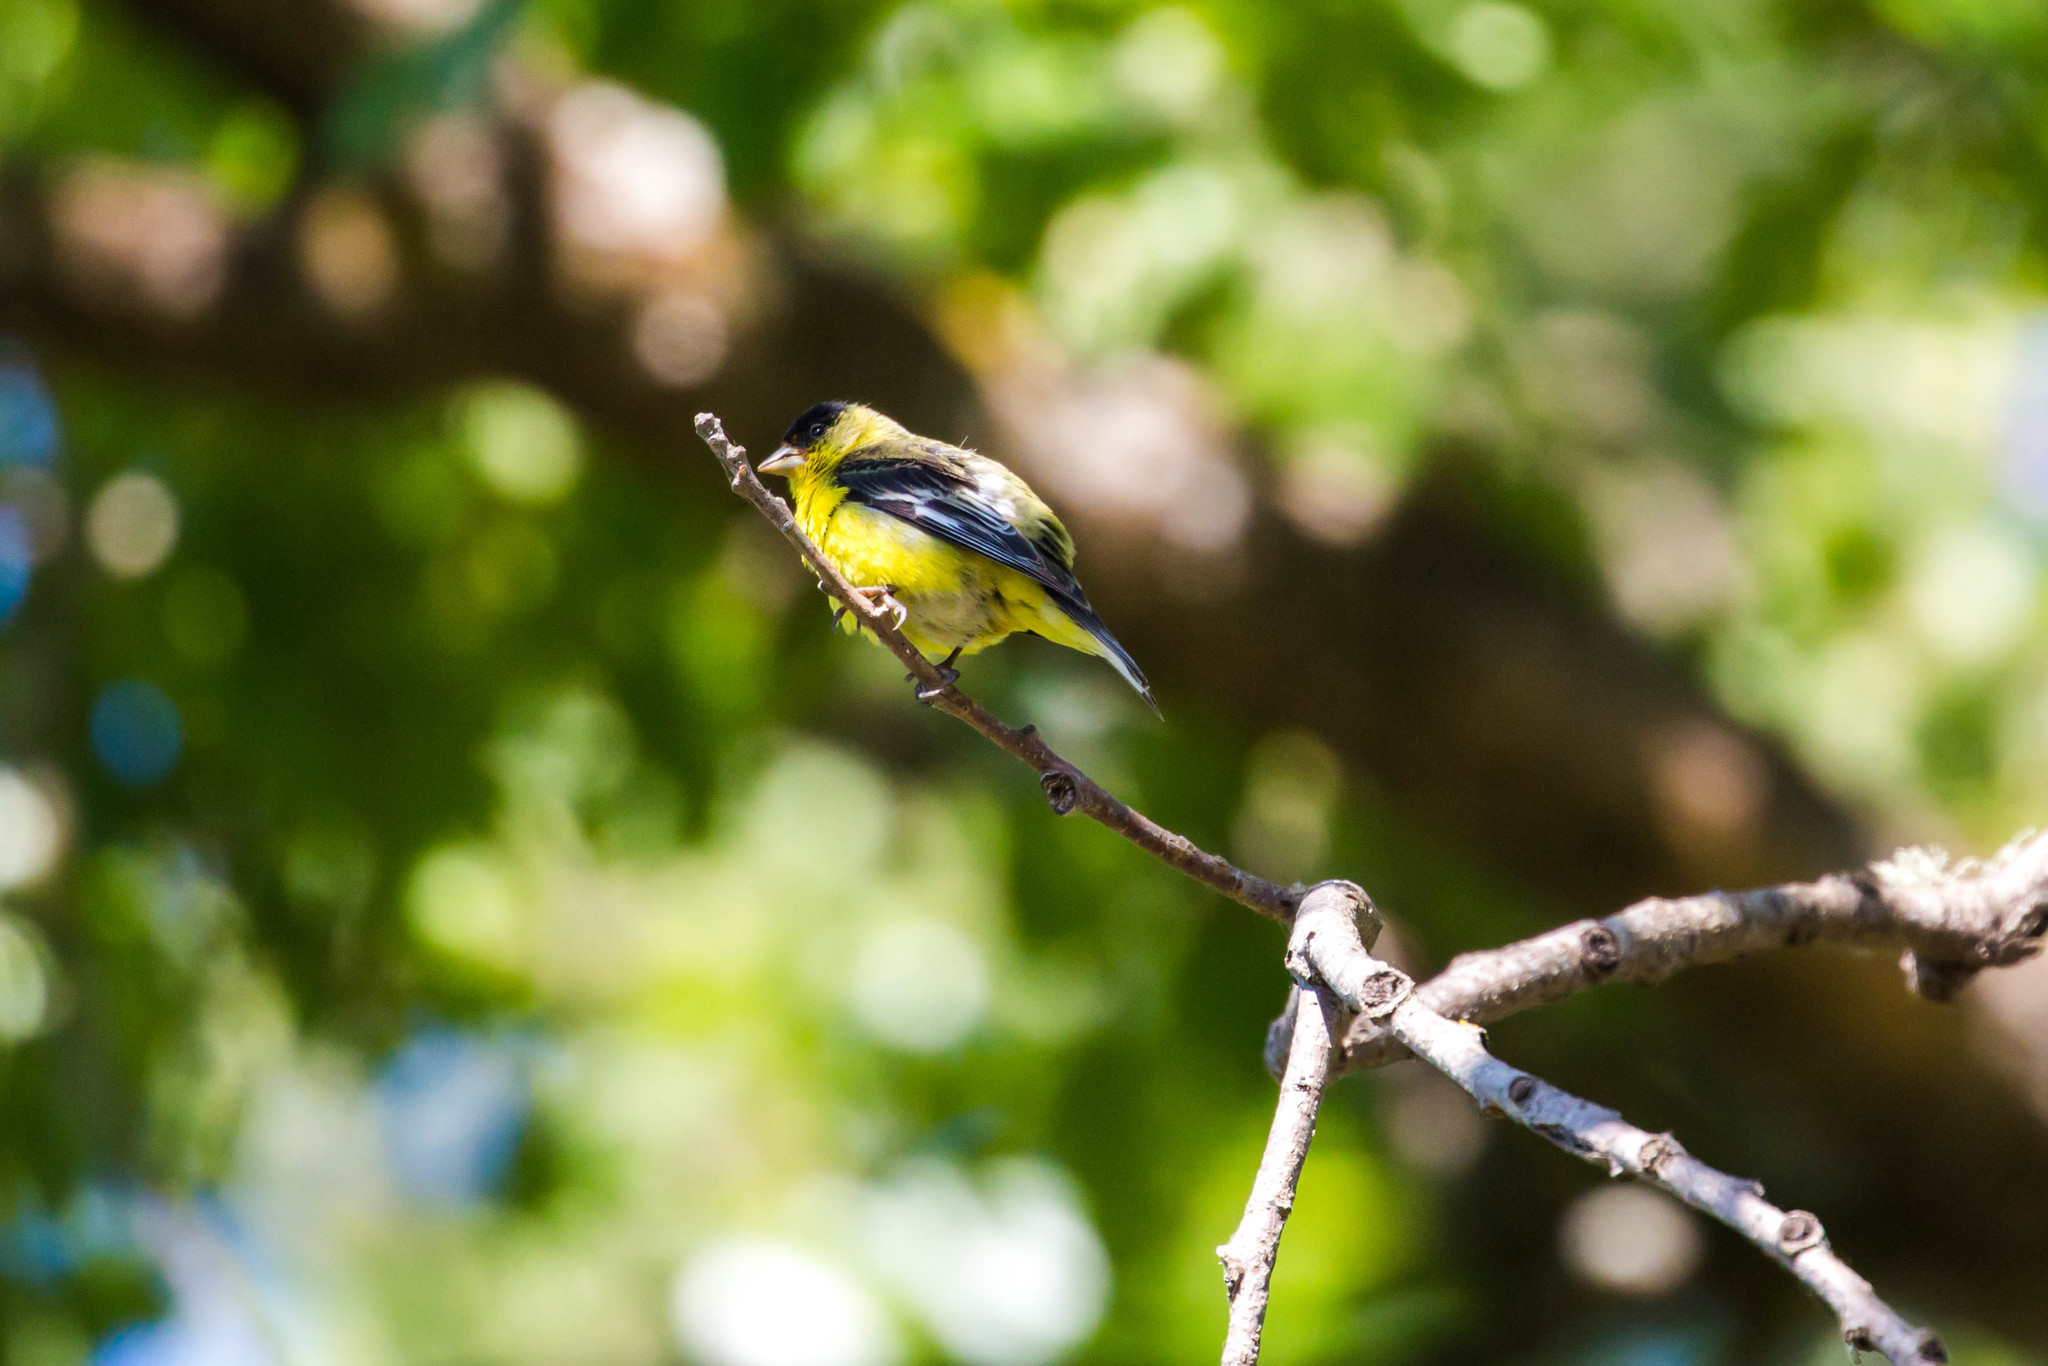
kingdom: Animalia
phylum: Chordata
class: Aves
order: Passeriformes
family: Fringillidae
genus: Spinus
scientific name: Spinus psaltria
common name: Lesser goldfinch
